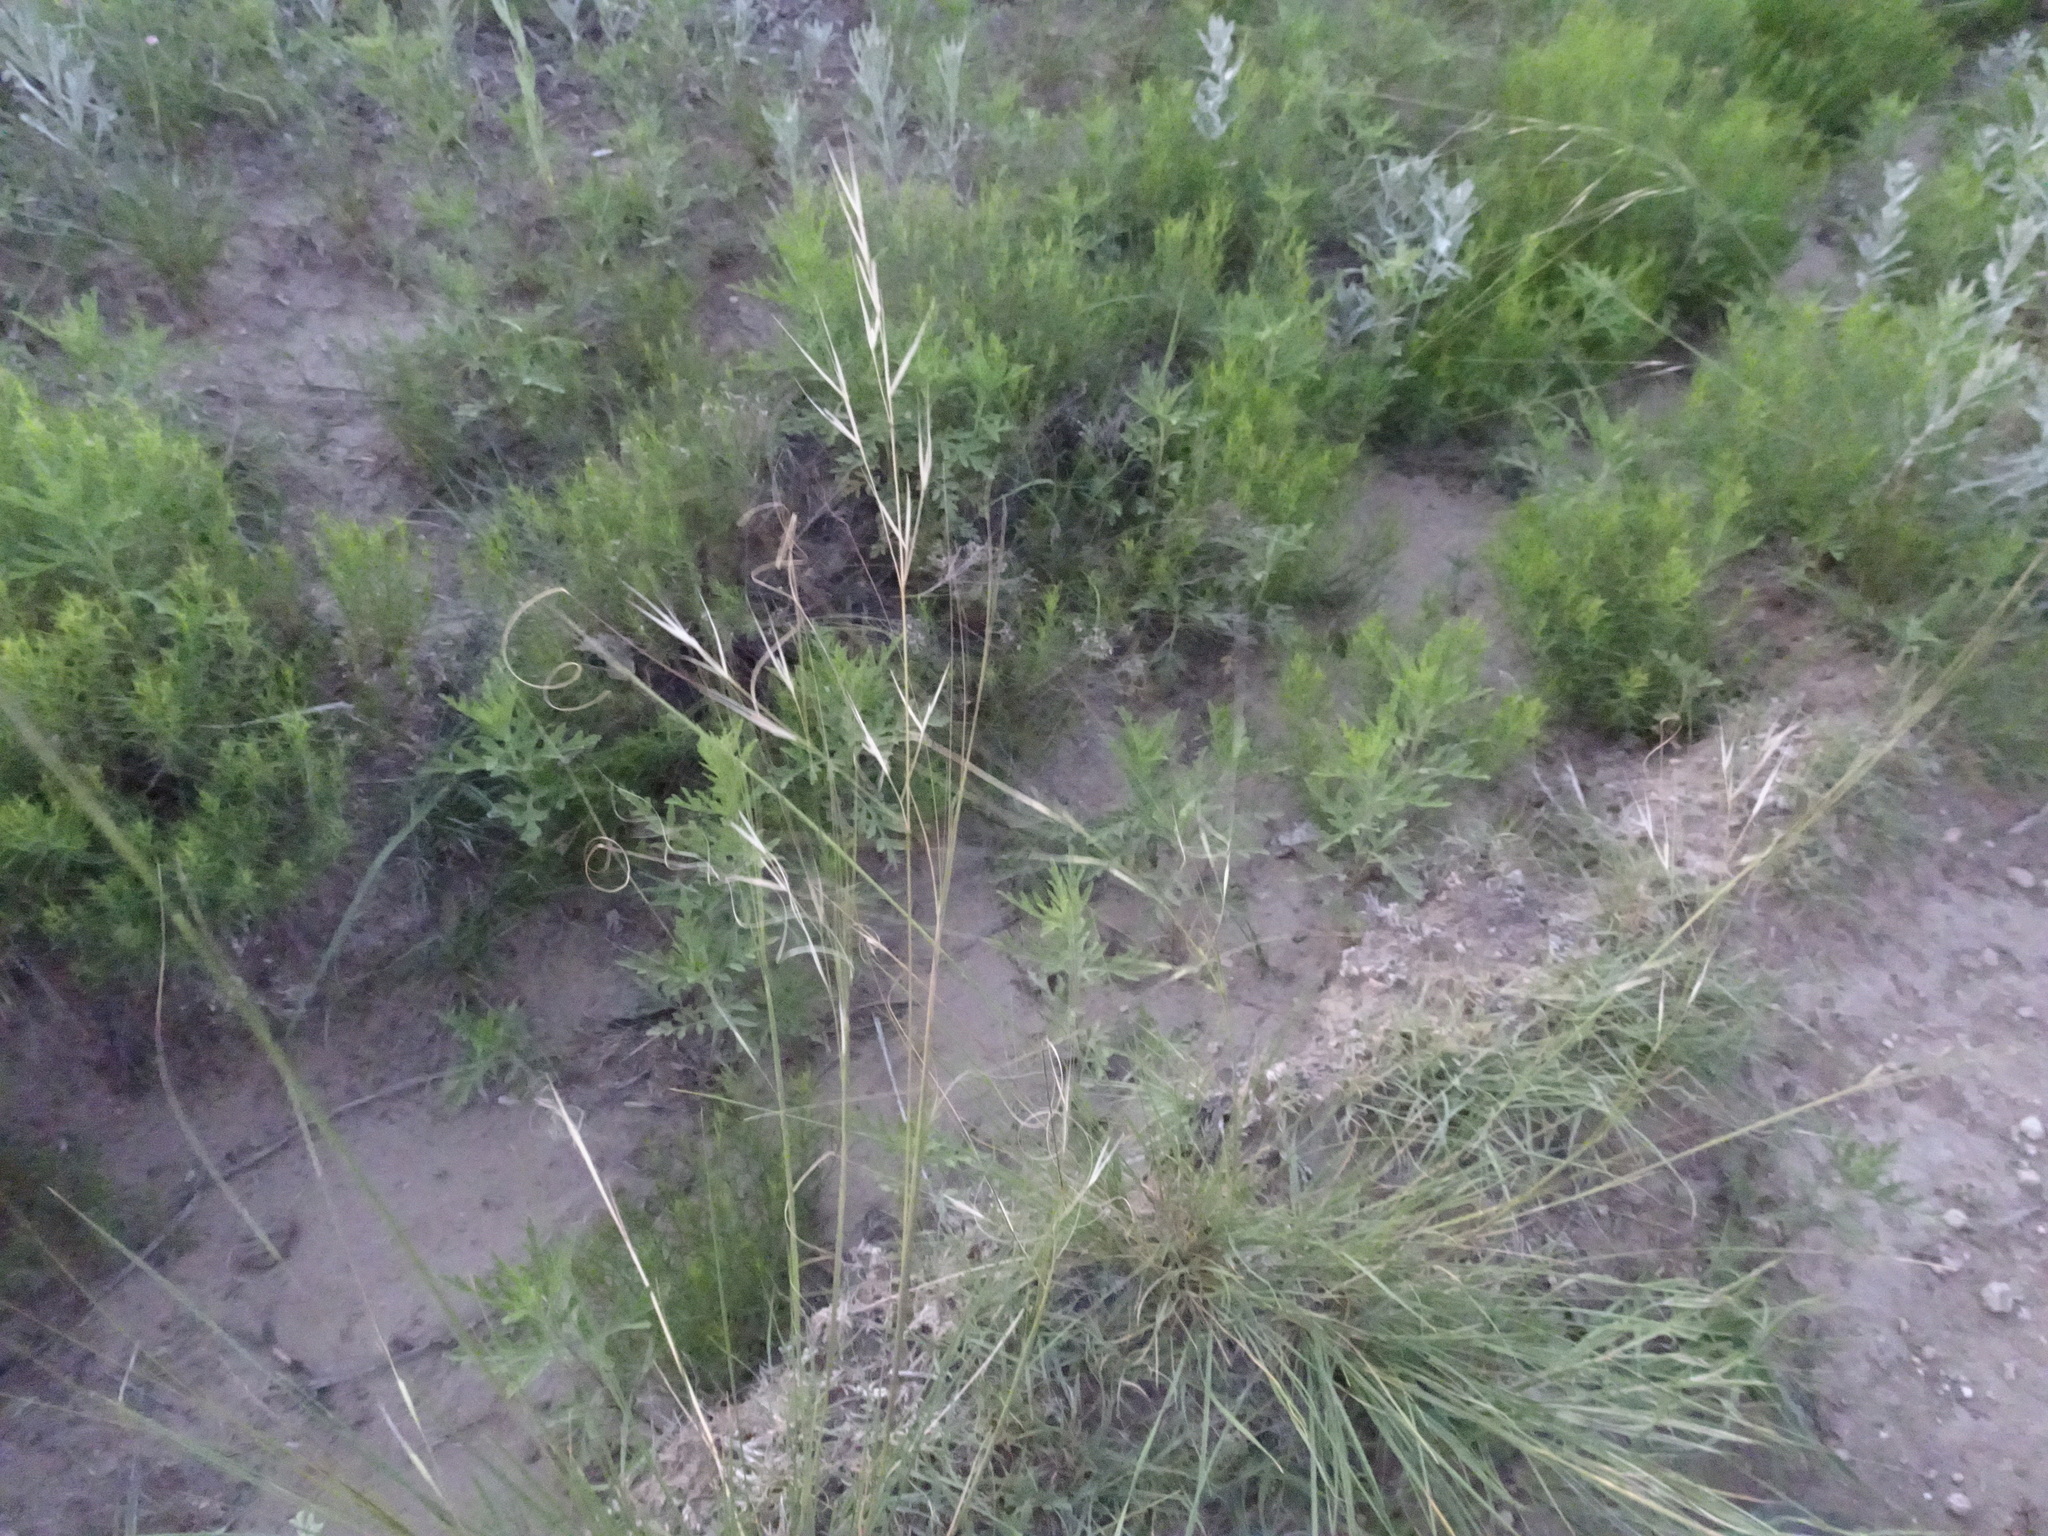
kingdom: Plantae
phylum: Tracheophyta
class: Liliopsida
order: Poales
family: Poaceae
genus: Hesperostipa
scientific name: Hesperostipa comata
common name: Needle-and-thread grass
